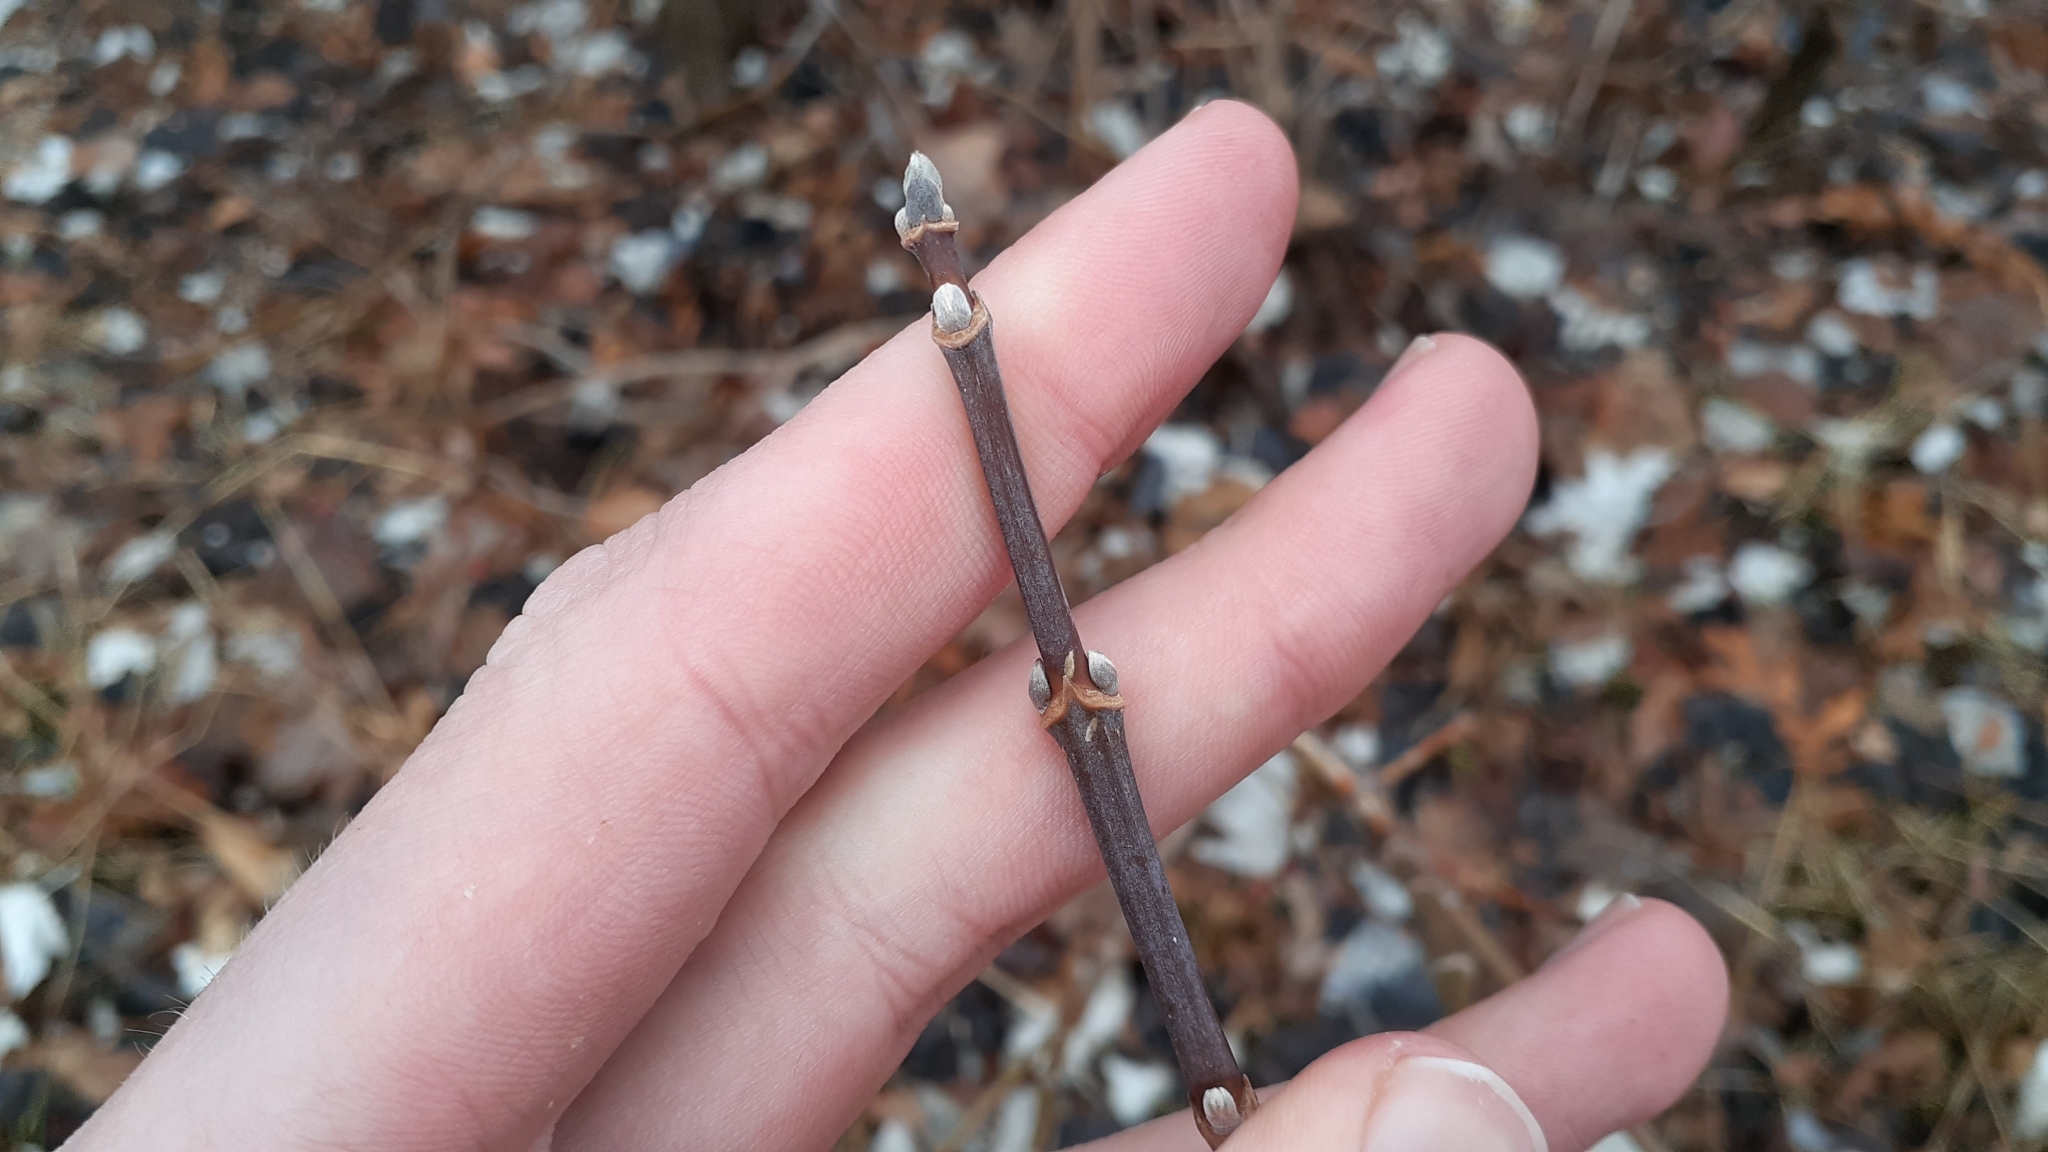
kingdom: Plantae
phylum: Tracheophyta
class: Magnoliopsida
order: Sapindales
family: Sapindaceae
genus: Acer
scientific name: Acer negundo
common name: Ashleaf maple
